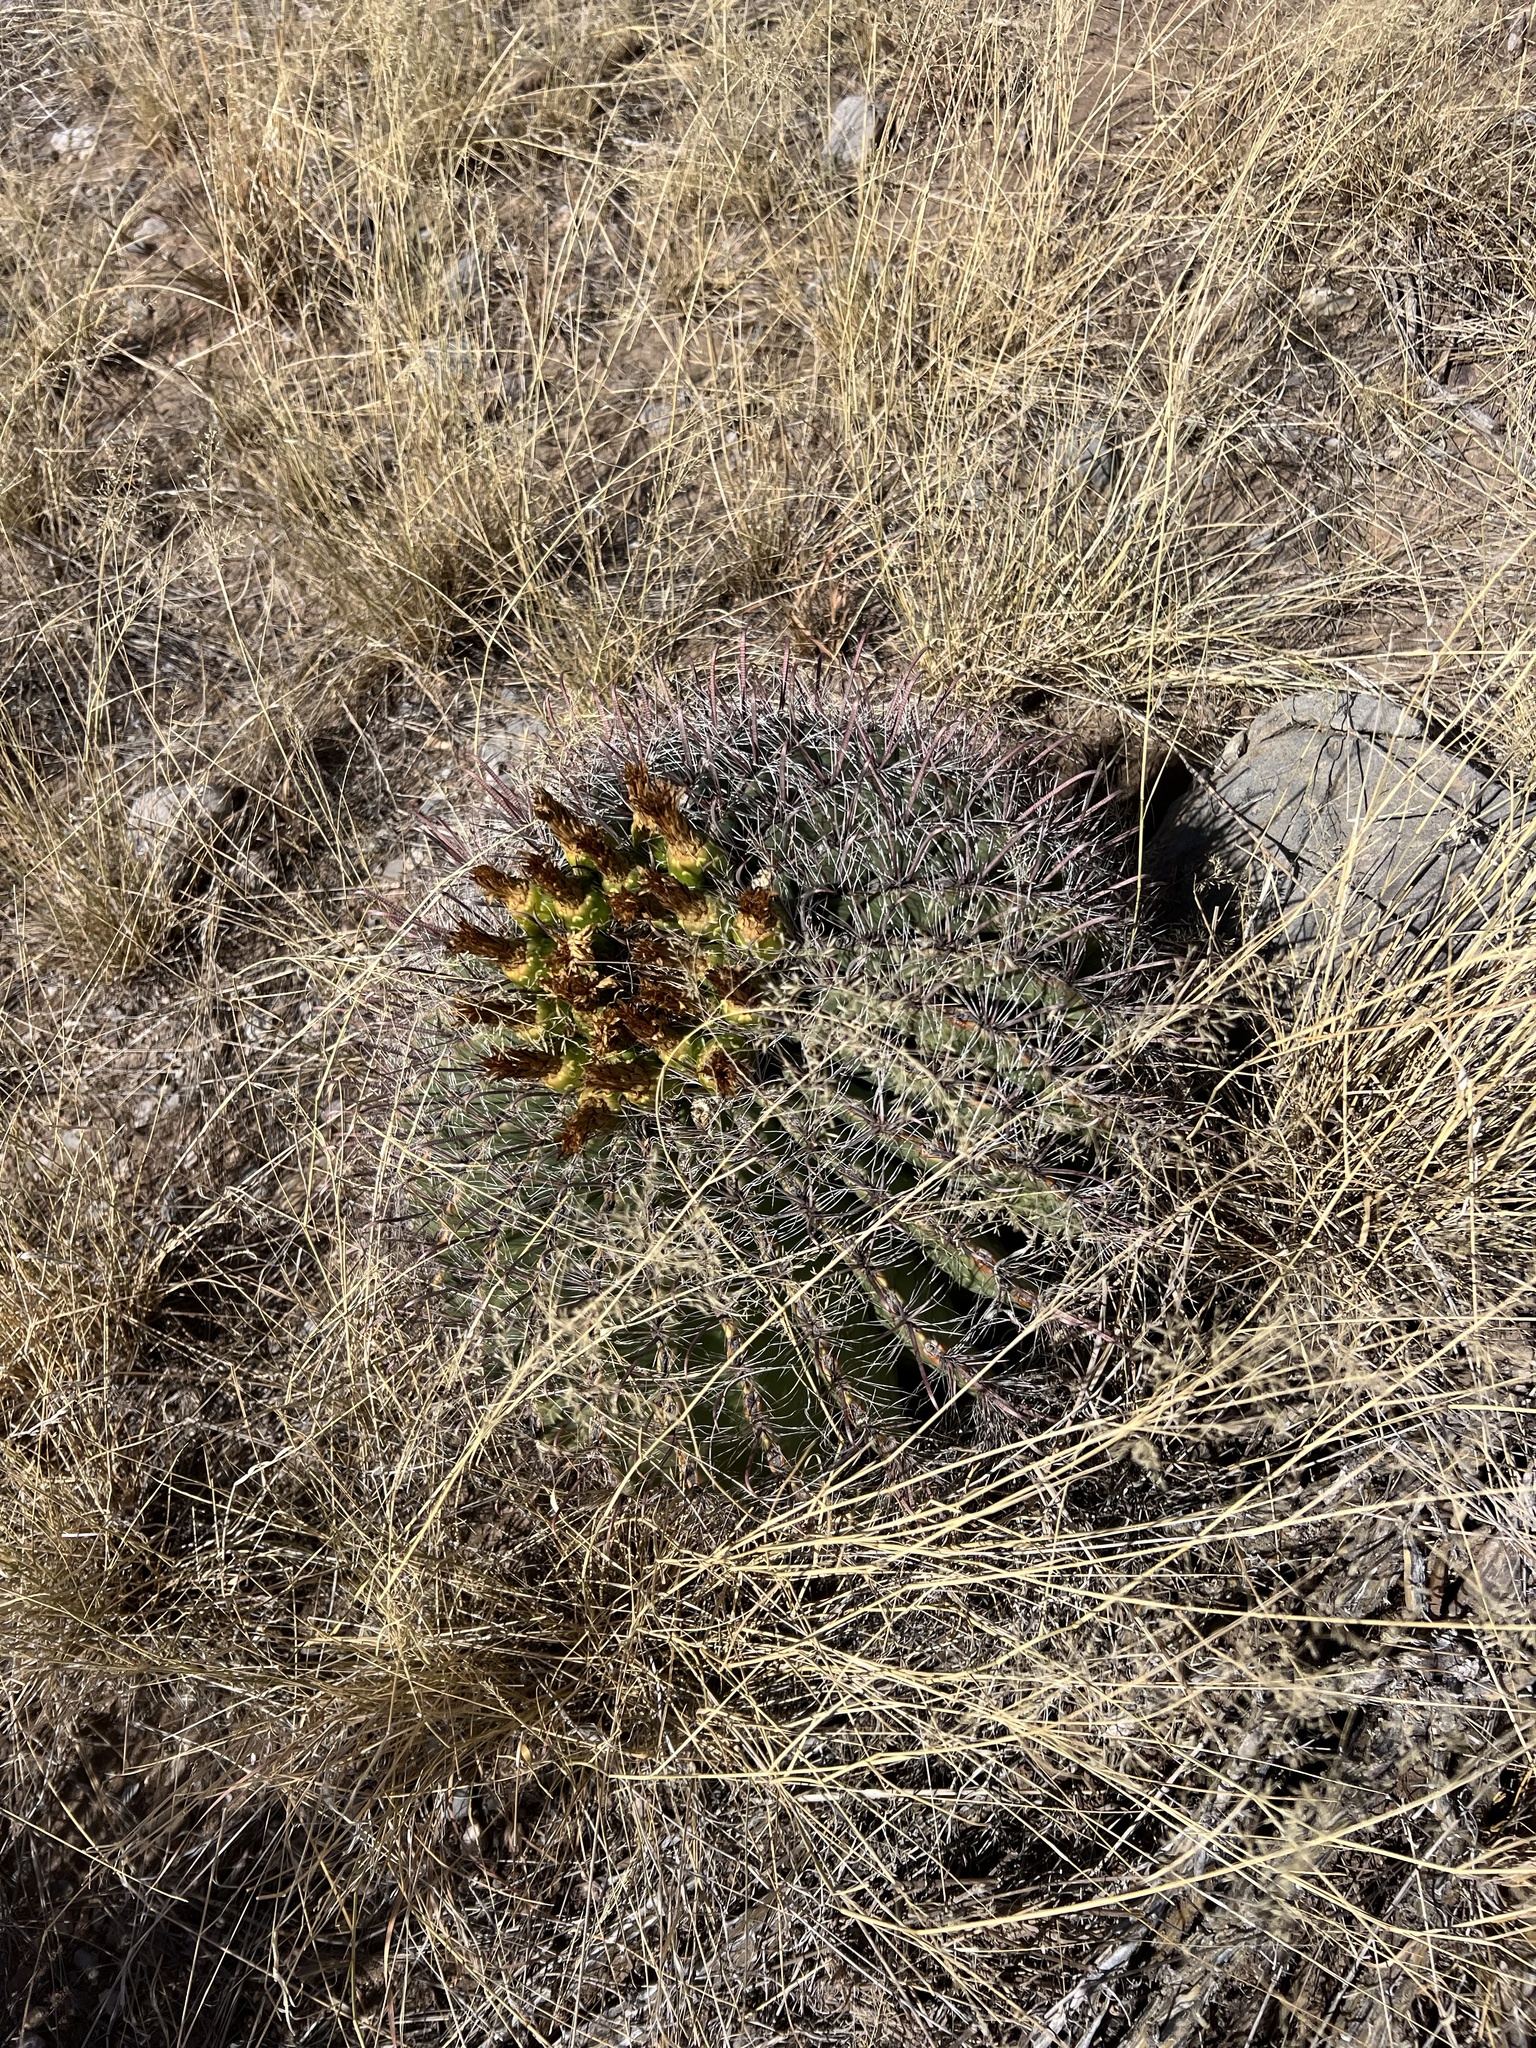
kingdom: Plantae
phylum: Tracheophyta
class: Magnoliopsida
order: Caryophyllales
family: Cactaceae
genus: Ferocactus
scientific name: Ferocactus wislizeni
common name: Candy barrel cactus
